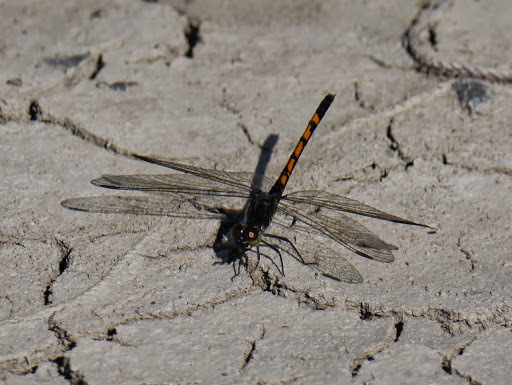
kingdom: Animalia
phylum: Arthropoda
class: Insecta
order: Odonata
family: Libellulidae
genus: Erythrodiplax
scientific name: Erythrodiplax berenice
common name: Seaside dragonlet
